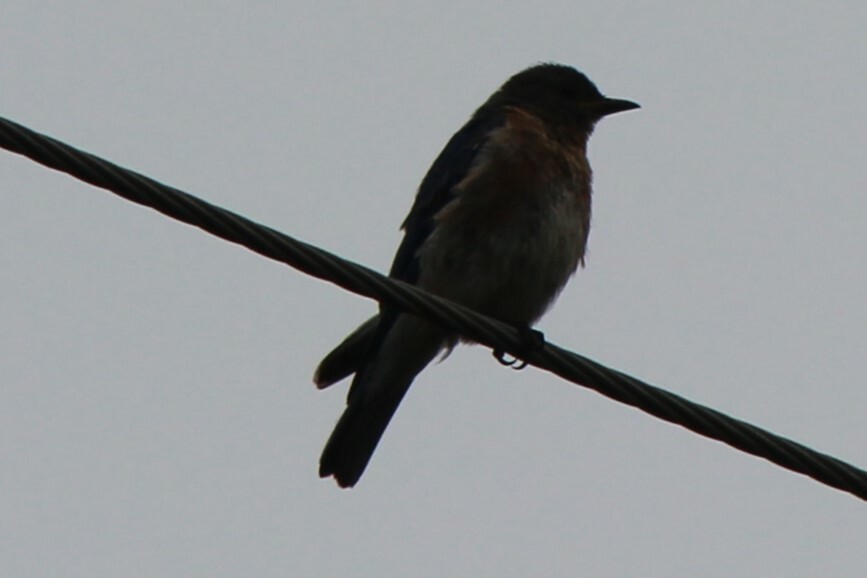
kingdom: Animalia
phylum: Chordata
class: Aves
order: Passeriformes
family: Turdidae
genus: Sialia
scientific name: Sialia sialis
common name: Eastern bluebird
